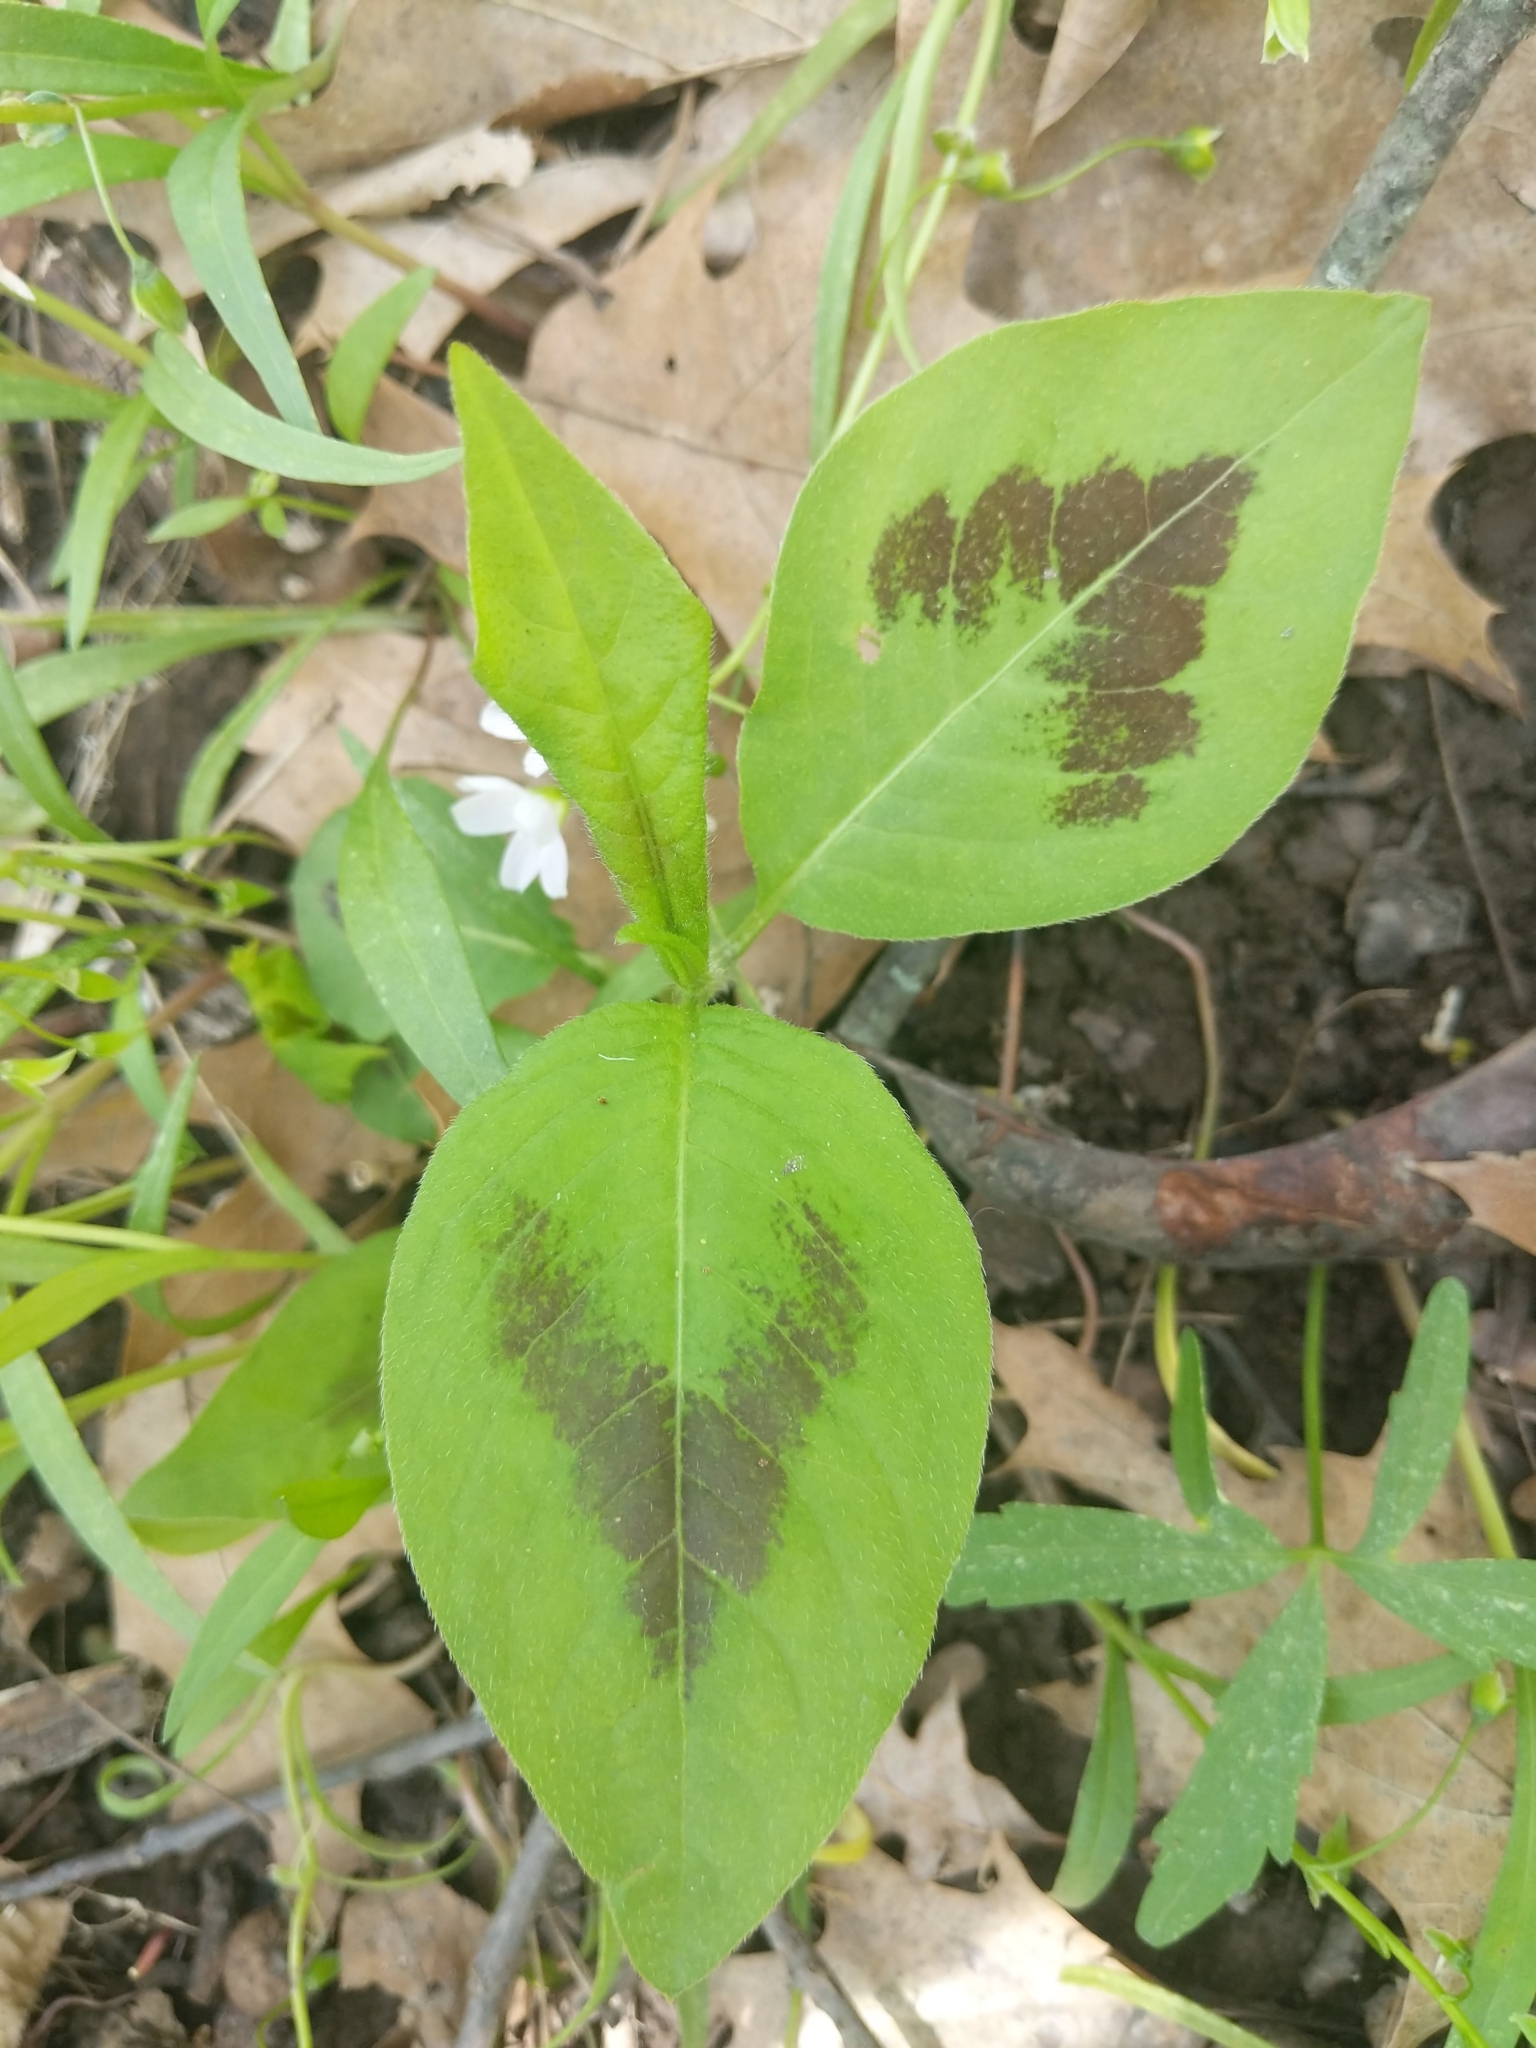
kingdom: Plantae
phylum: Tracheophyta
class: Magnoliopsida
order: Caryophyllales
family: Polygonaceae
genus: Persicaria
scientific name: Persicaria virginiana
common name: Jumpseed
